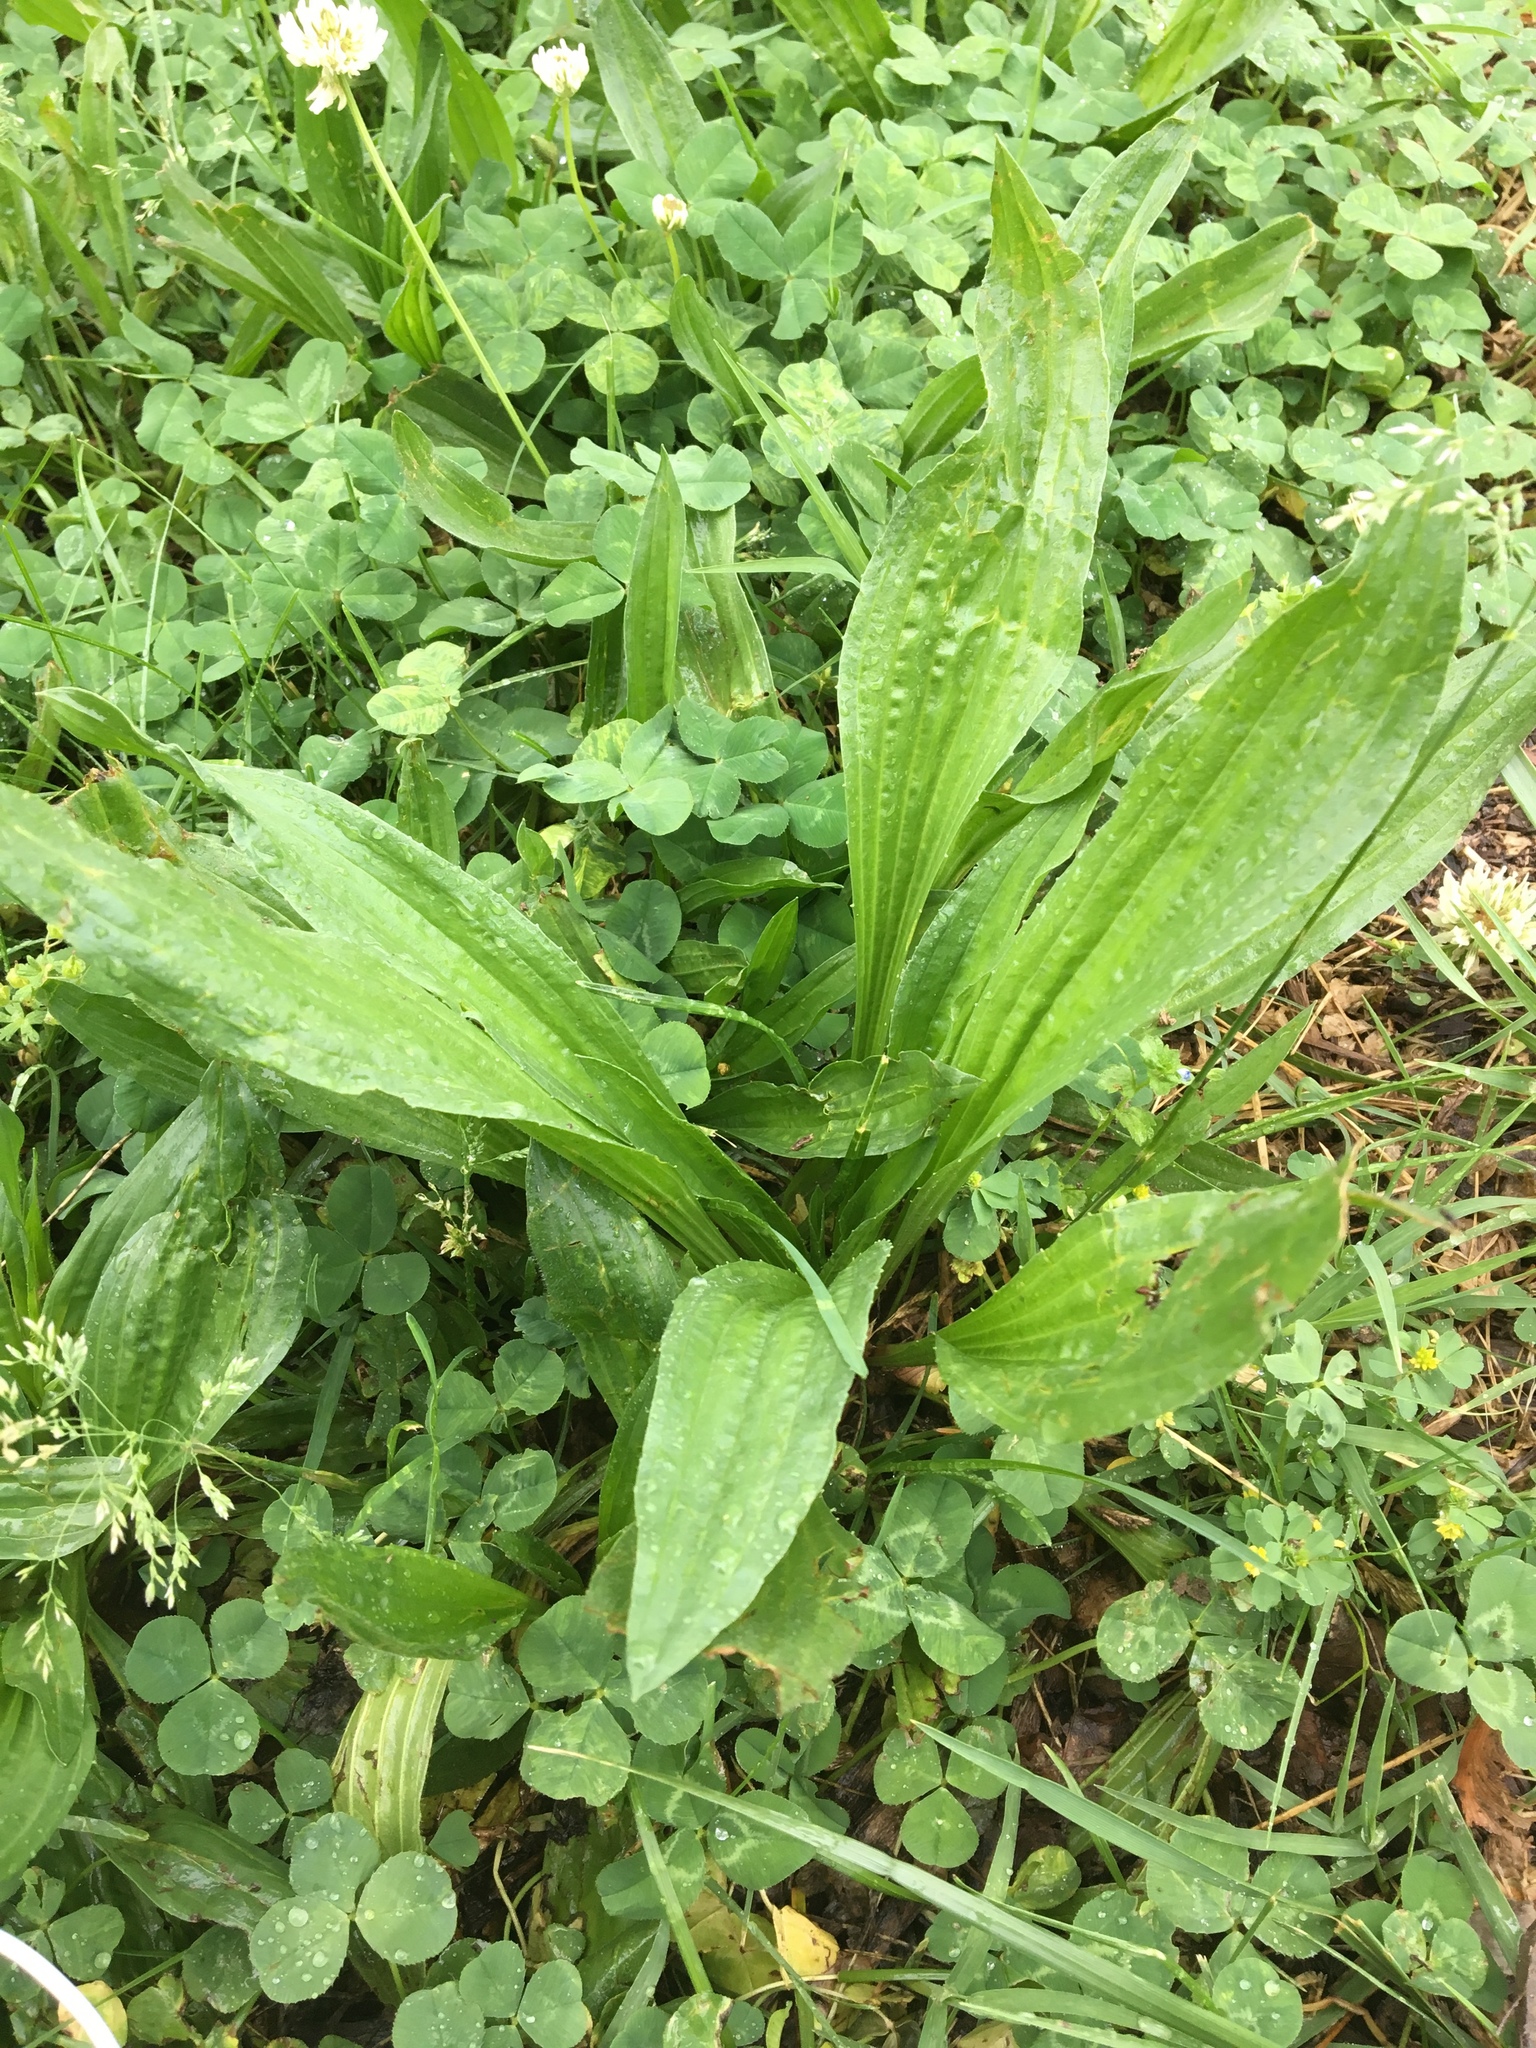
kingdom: Plantae
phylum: Tracheophyta
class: Magnoliopsida
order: Lamiales
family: Plantaginaceae
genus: Plantago
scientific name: Plantago lanceolata
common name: Ribwort plantain
